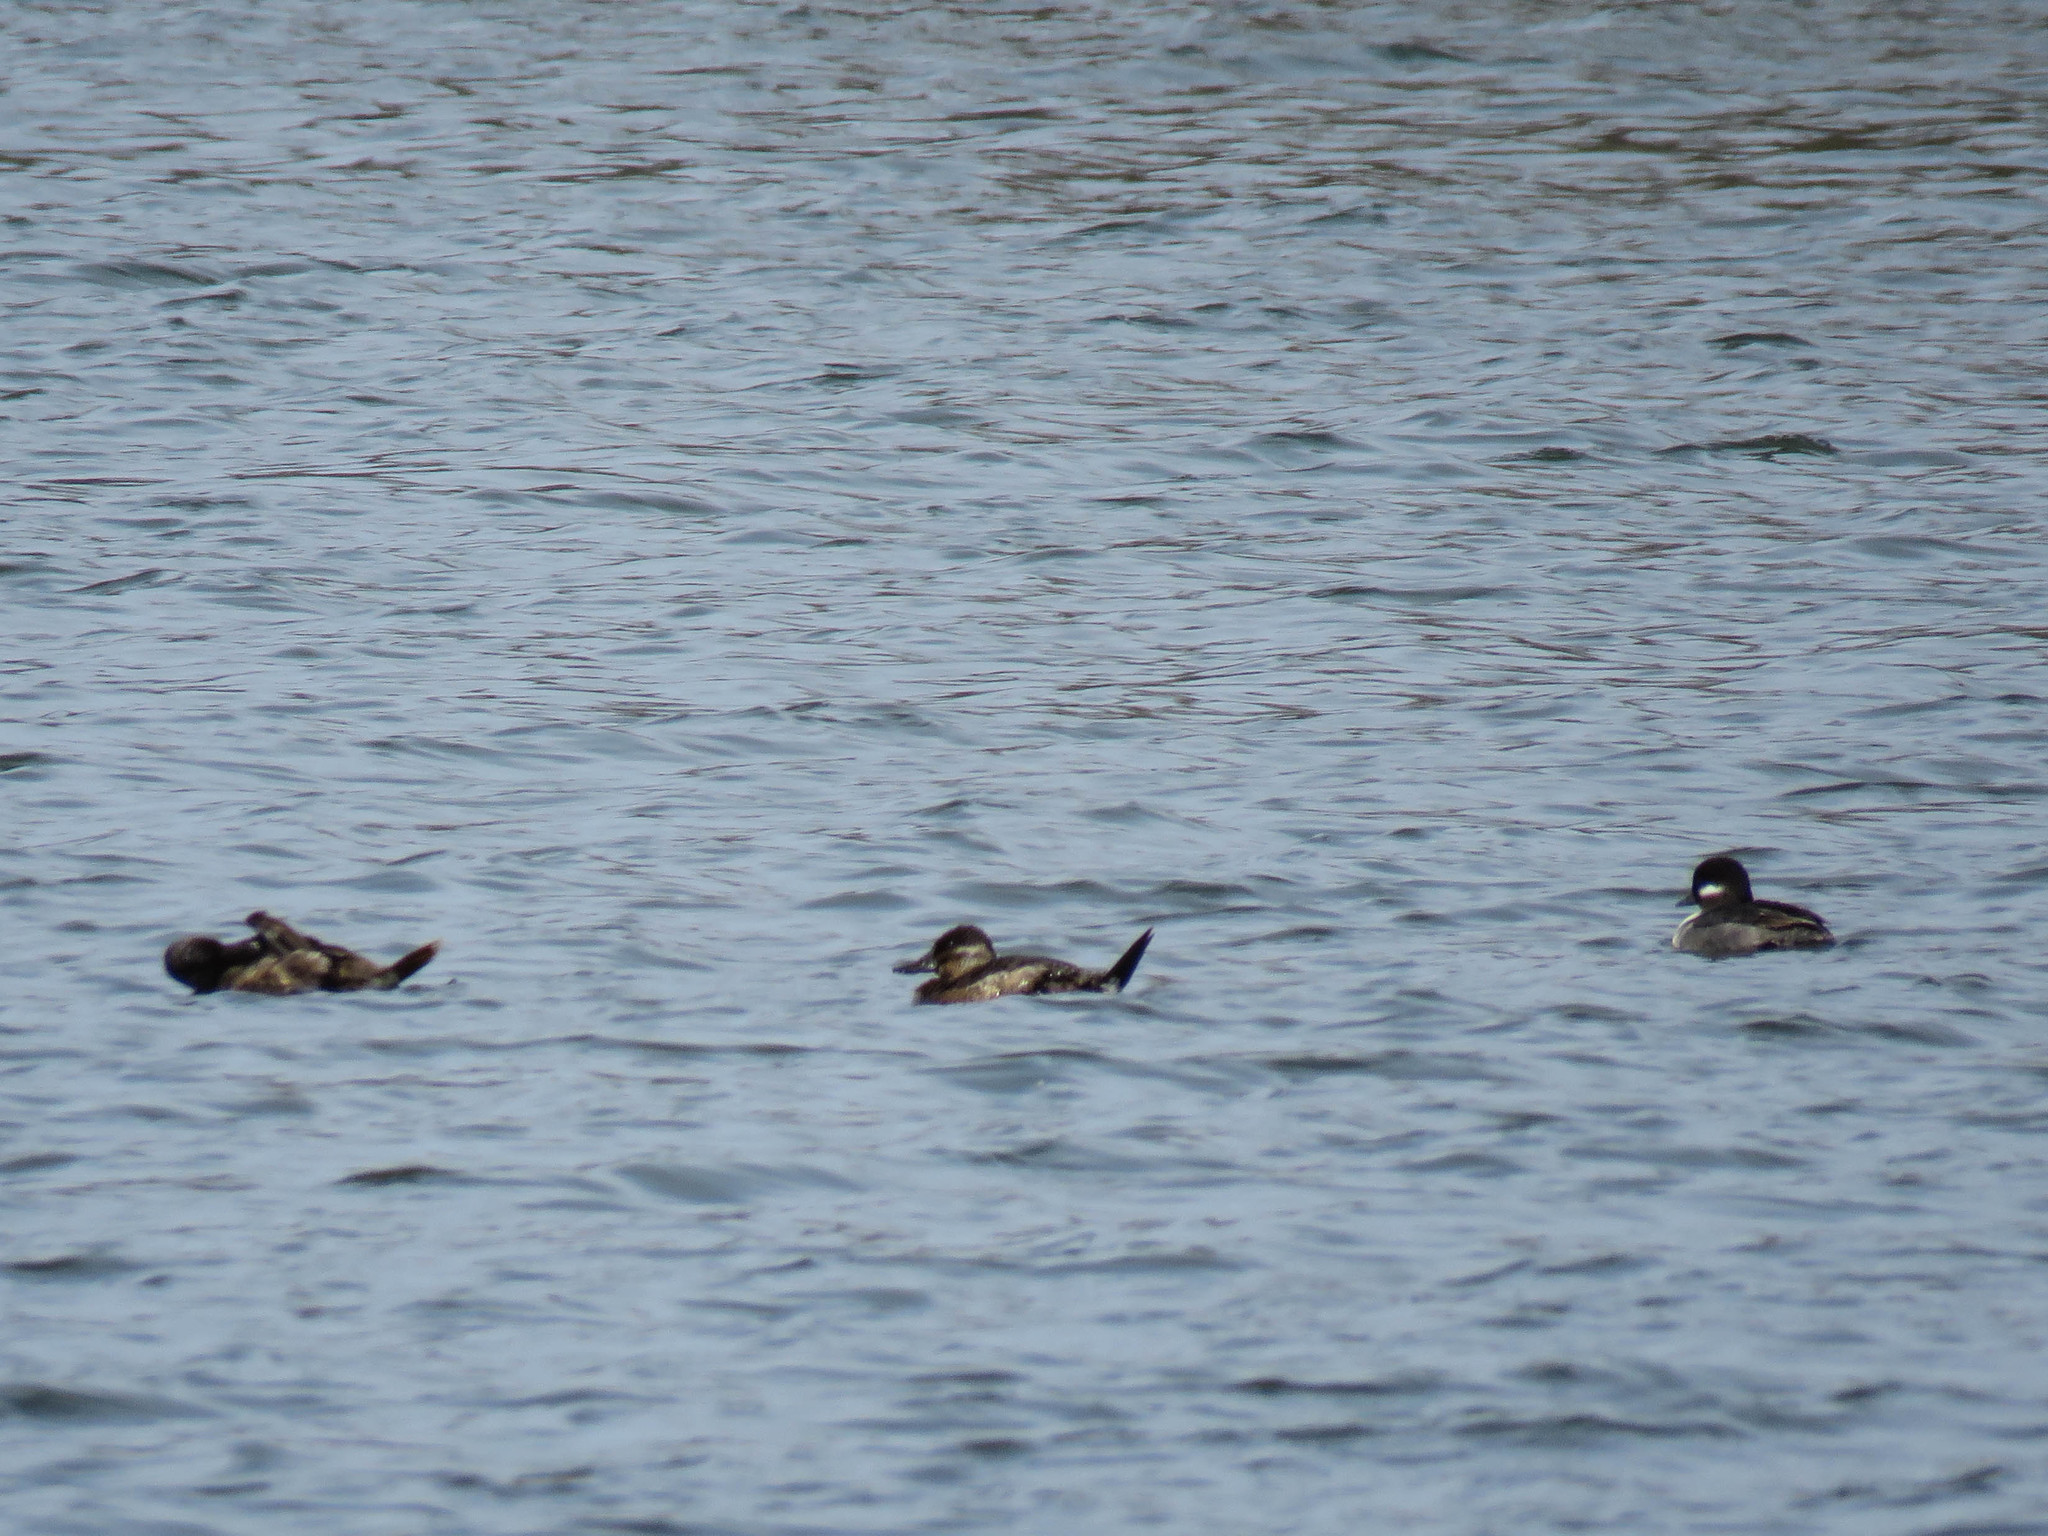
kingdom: Animalia
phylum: Chordata
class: Aves
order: Anseriformes
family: Anatidae
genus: Oxyura
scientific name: Oxyura jamaicensis
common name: Ruddy duck
